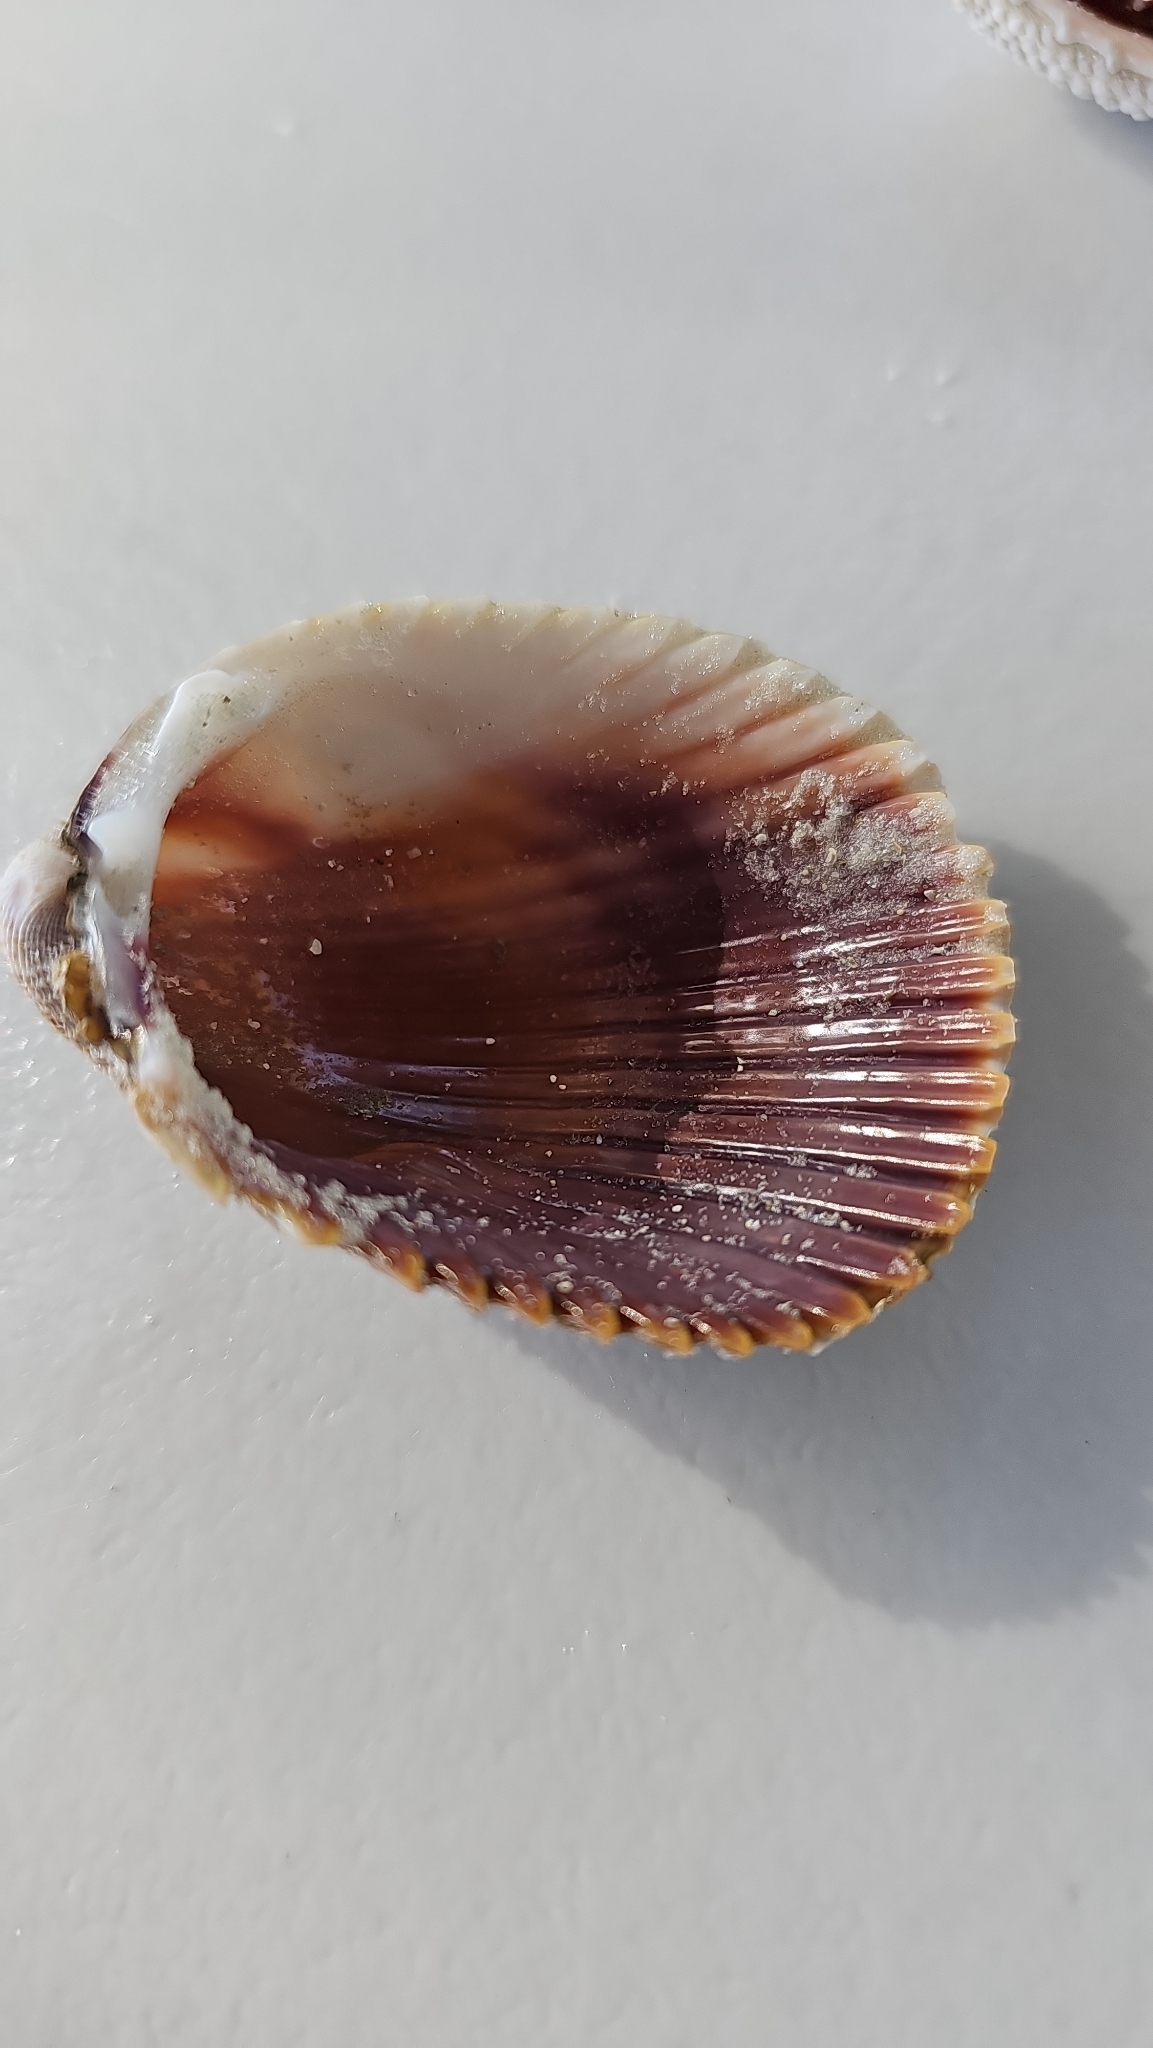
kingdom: Animalia
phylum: Mollusca
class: Bivalvia
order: Cardiida
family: Cardiidae
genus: Dinocardium
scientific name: Dinocardium robustum
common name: Atlantic giant cockle
